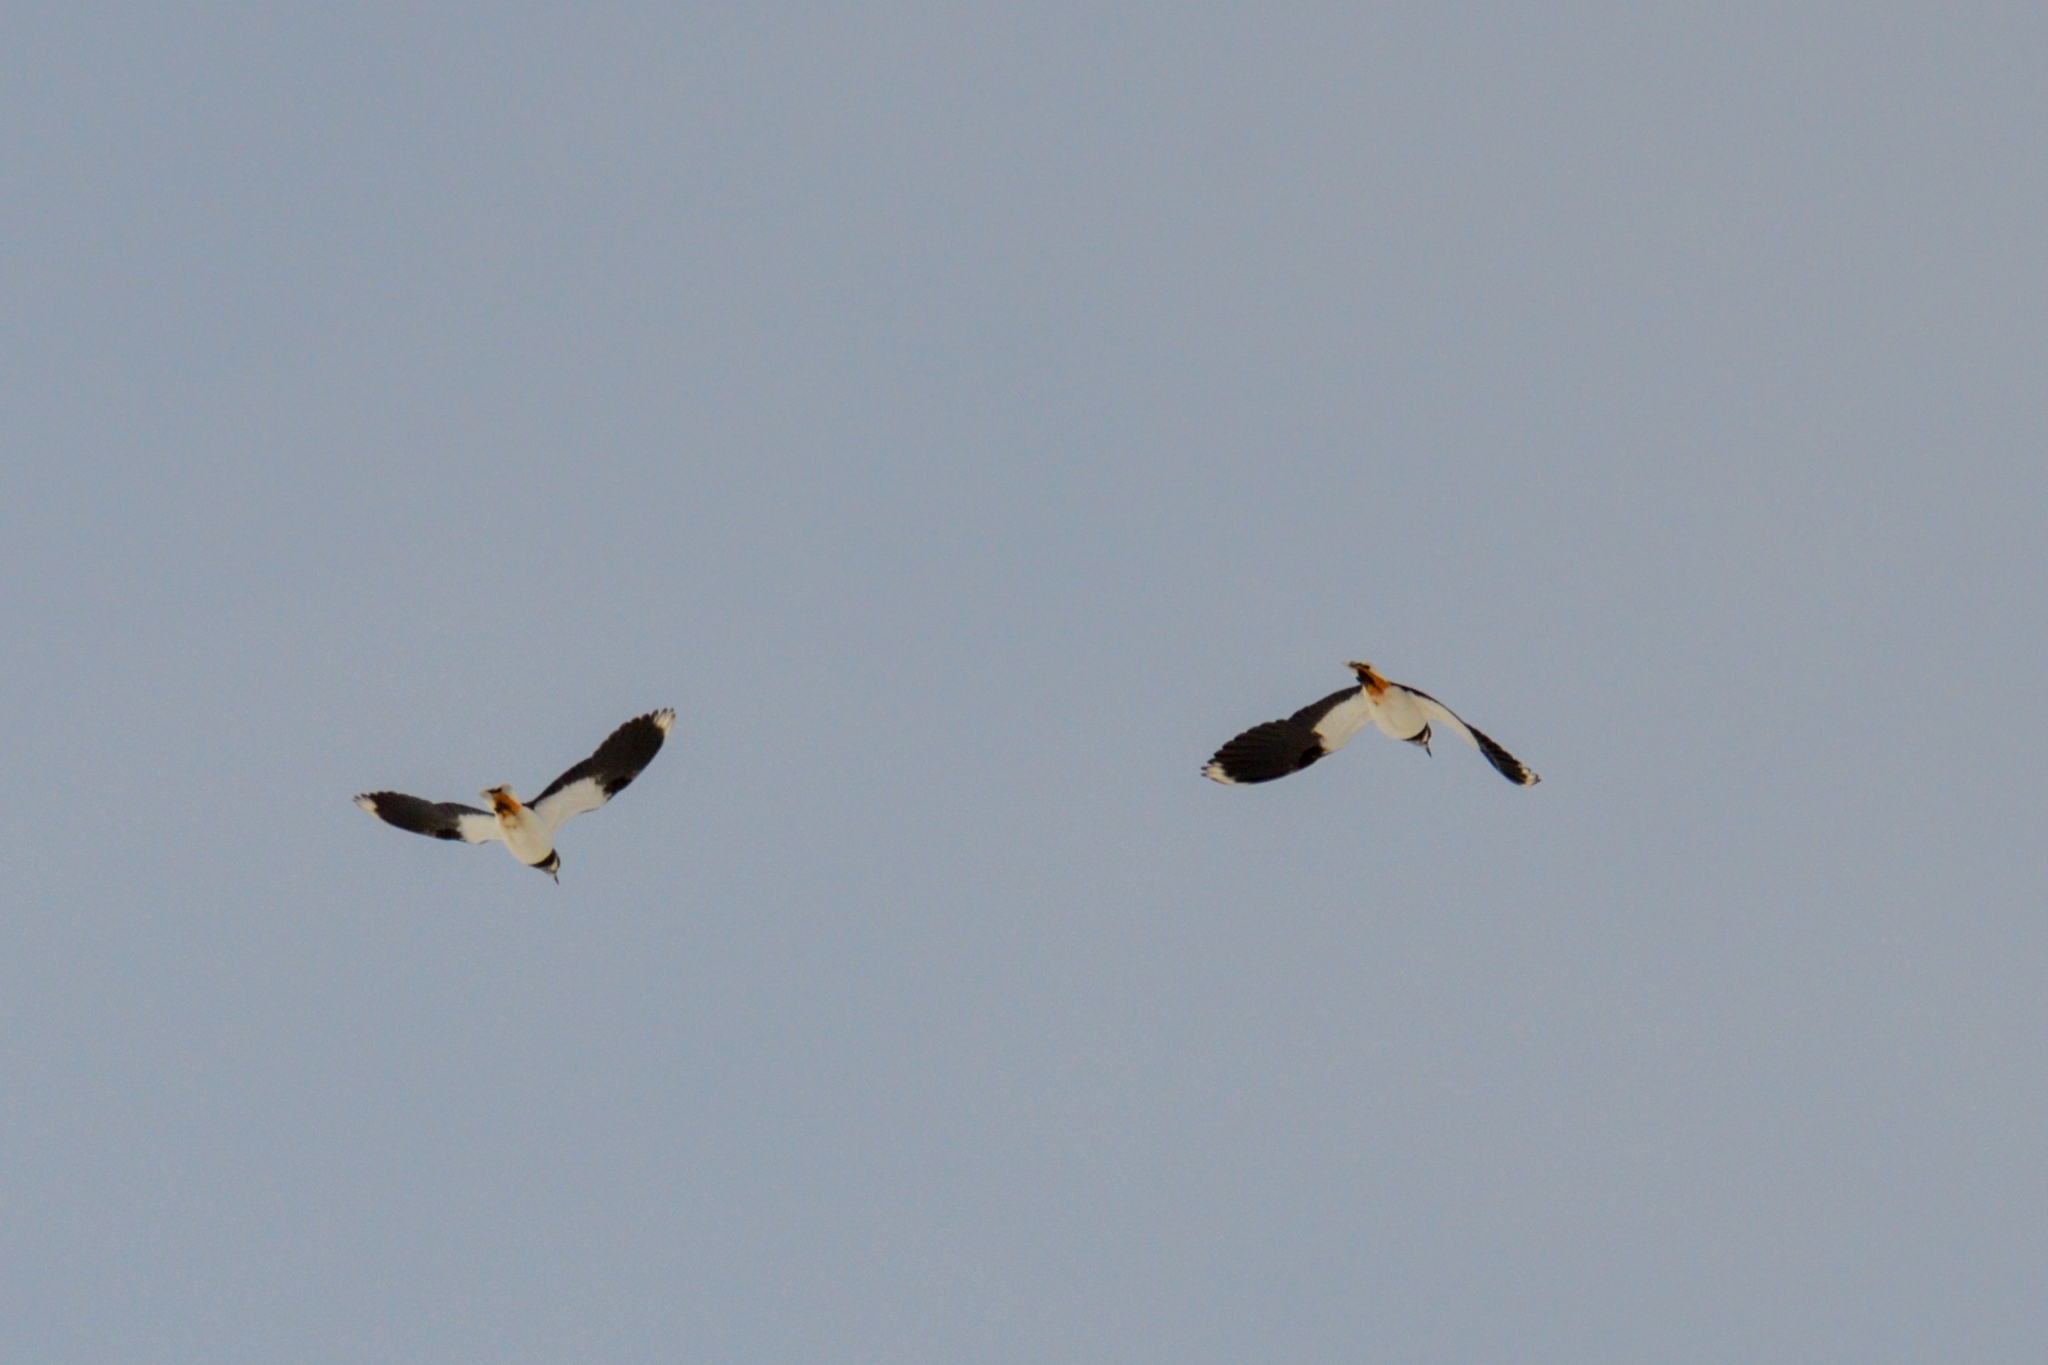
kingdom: Animalia
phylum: Chordata
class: Aves
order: Charadriiformes
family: Charadriidae
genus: Vanellus
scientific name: Vanellus vanellus
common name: Northern lapwing
